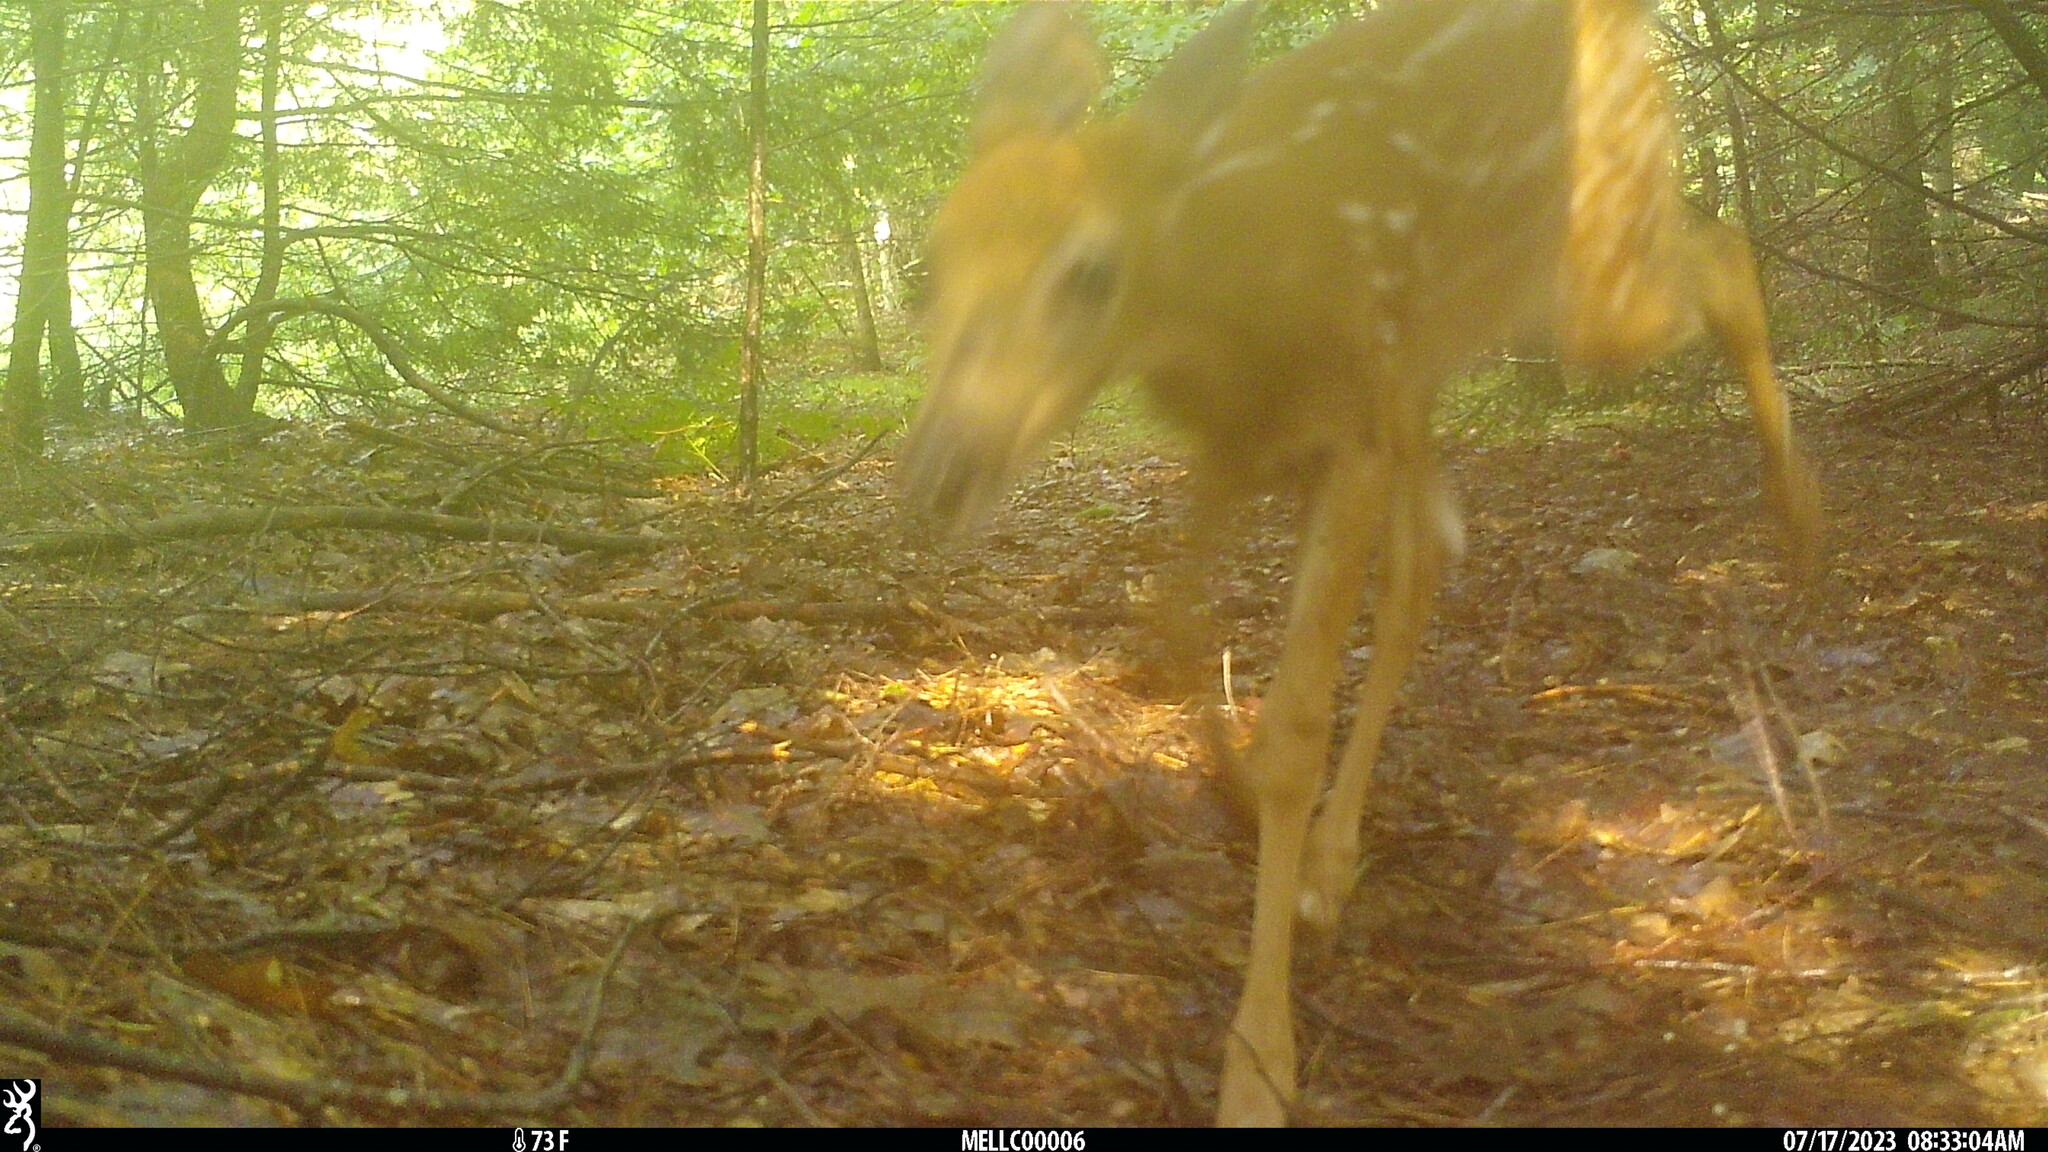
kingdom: Animalia
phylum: Chordata
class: Mammalia
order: Artiodactyla
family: Cervidae
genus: Odocoileus
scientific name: Odocoileus virginianus
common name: White-tailed deer
